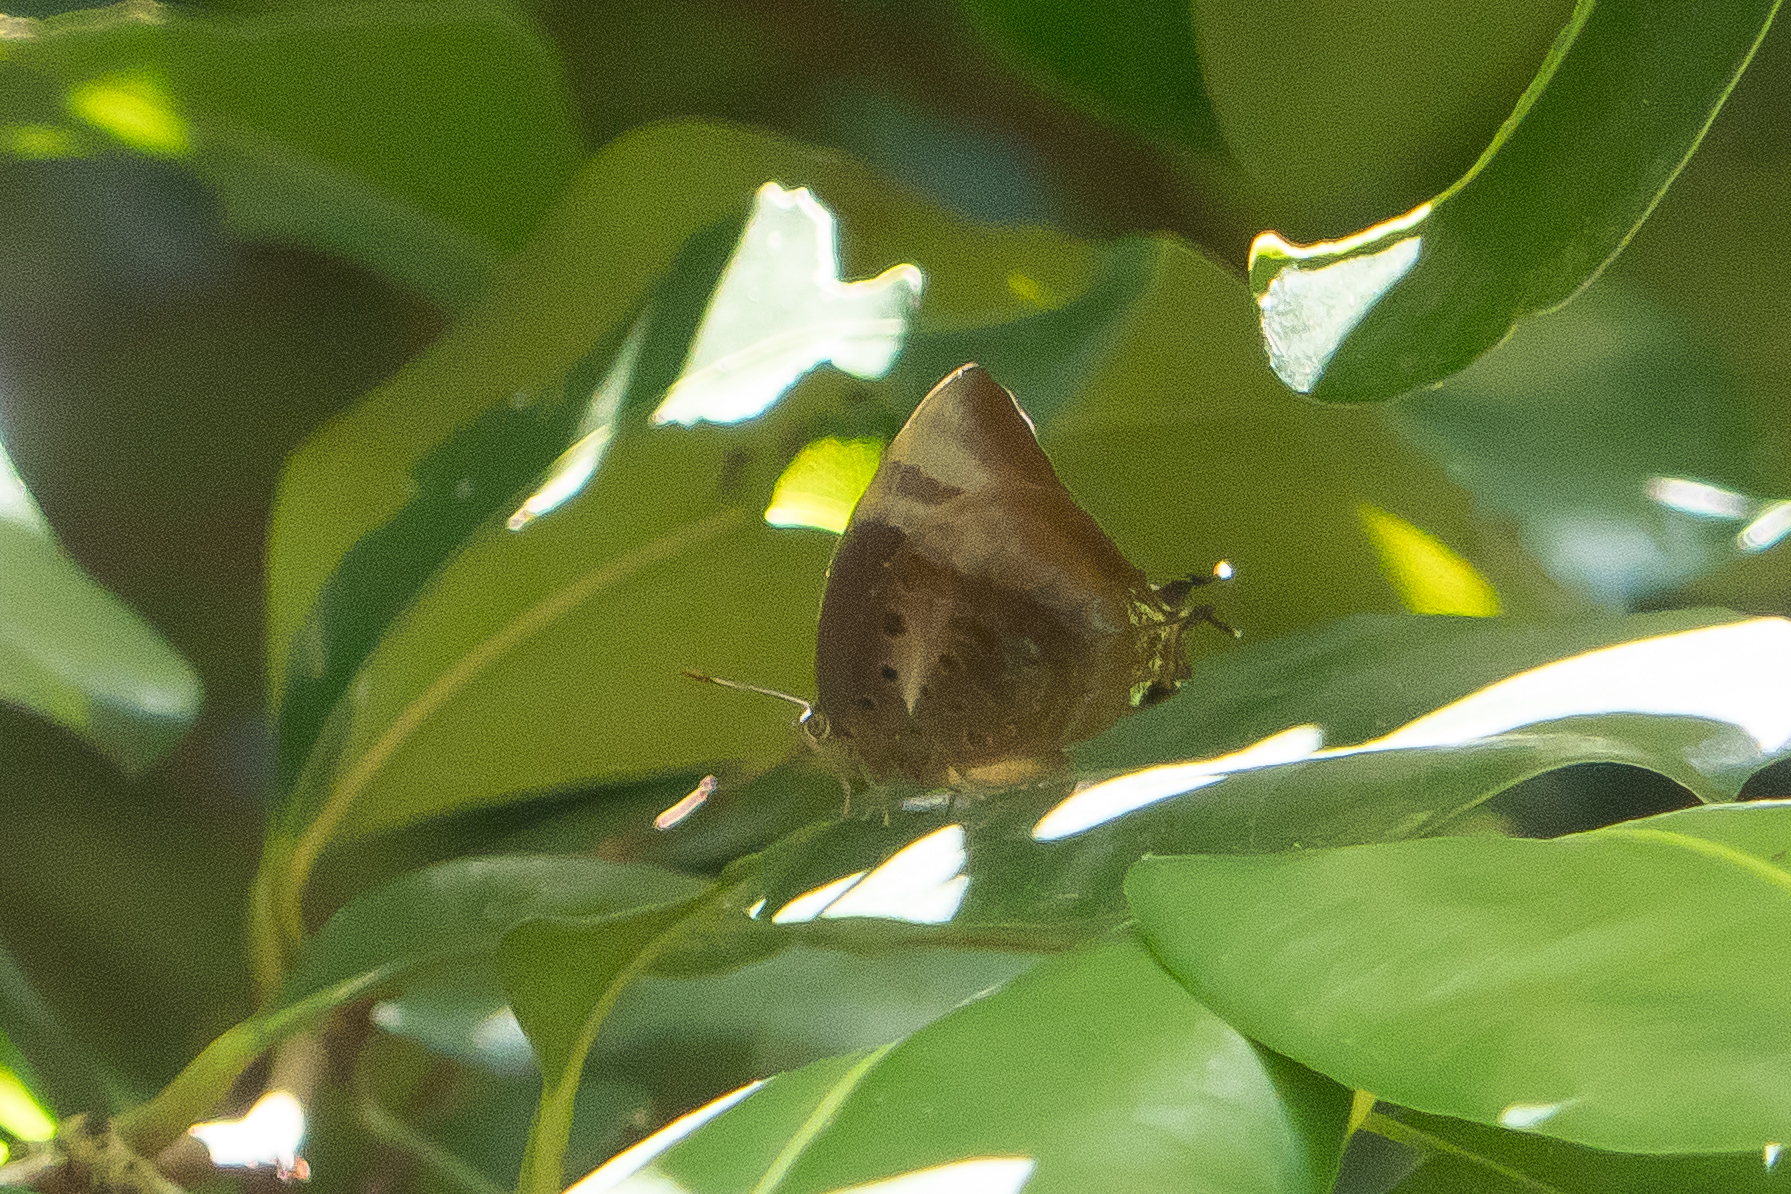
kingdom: Animalia
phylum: Arthropoda
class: Insecta
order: Lepidoptera
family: Lycaenidae
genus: Arhopala
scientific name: Arhopala micale
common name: Shining oak-blue
